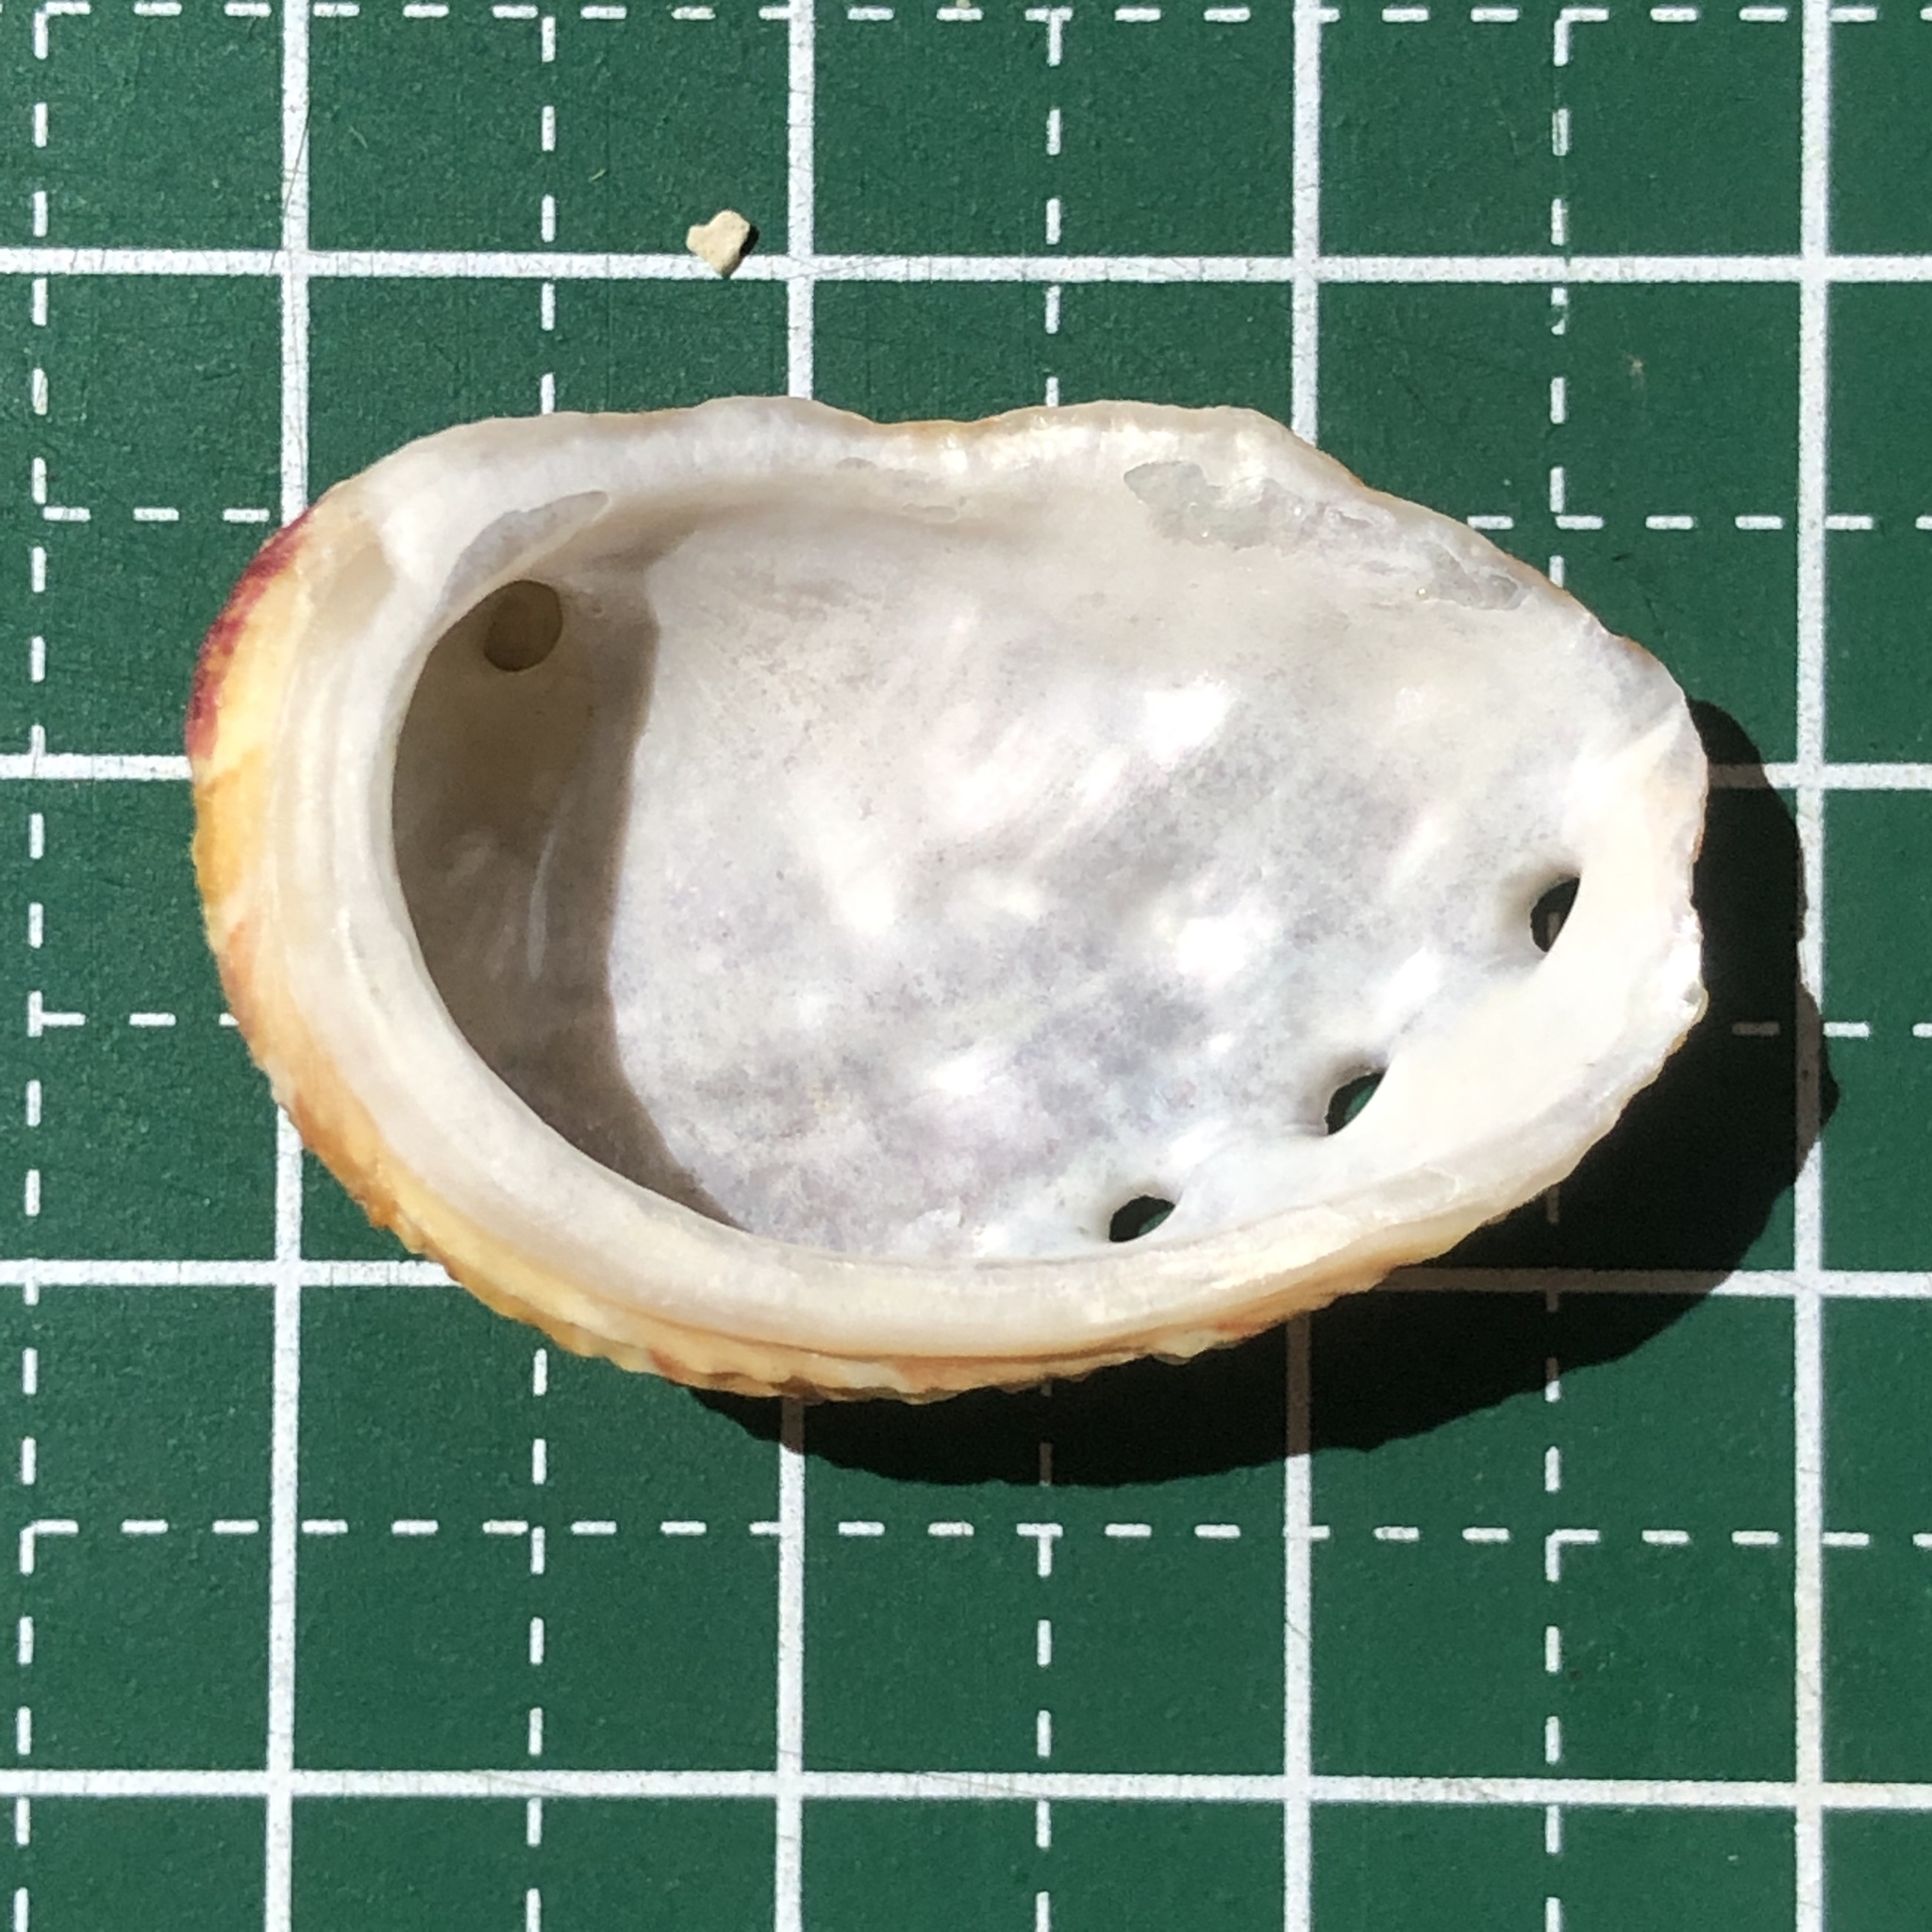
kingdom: Animalia
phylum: Mollusca
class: Gastropoda
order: Lepetellida
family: Haliotidae
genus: Haliotis
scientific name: Haliotis varia
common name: Variable abalone
